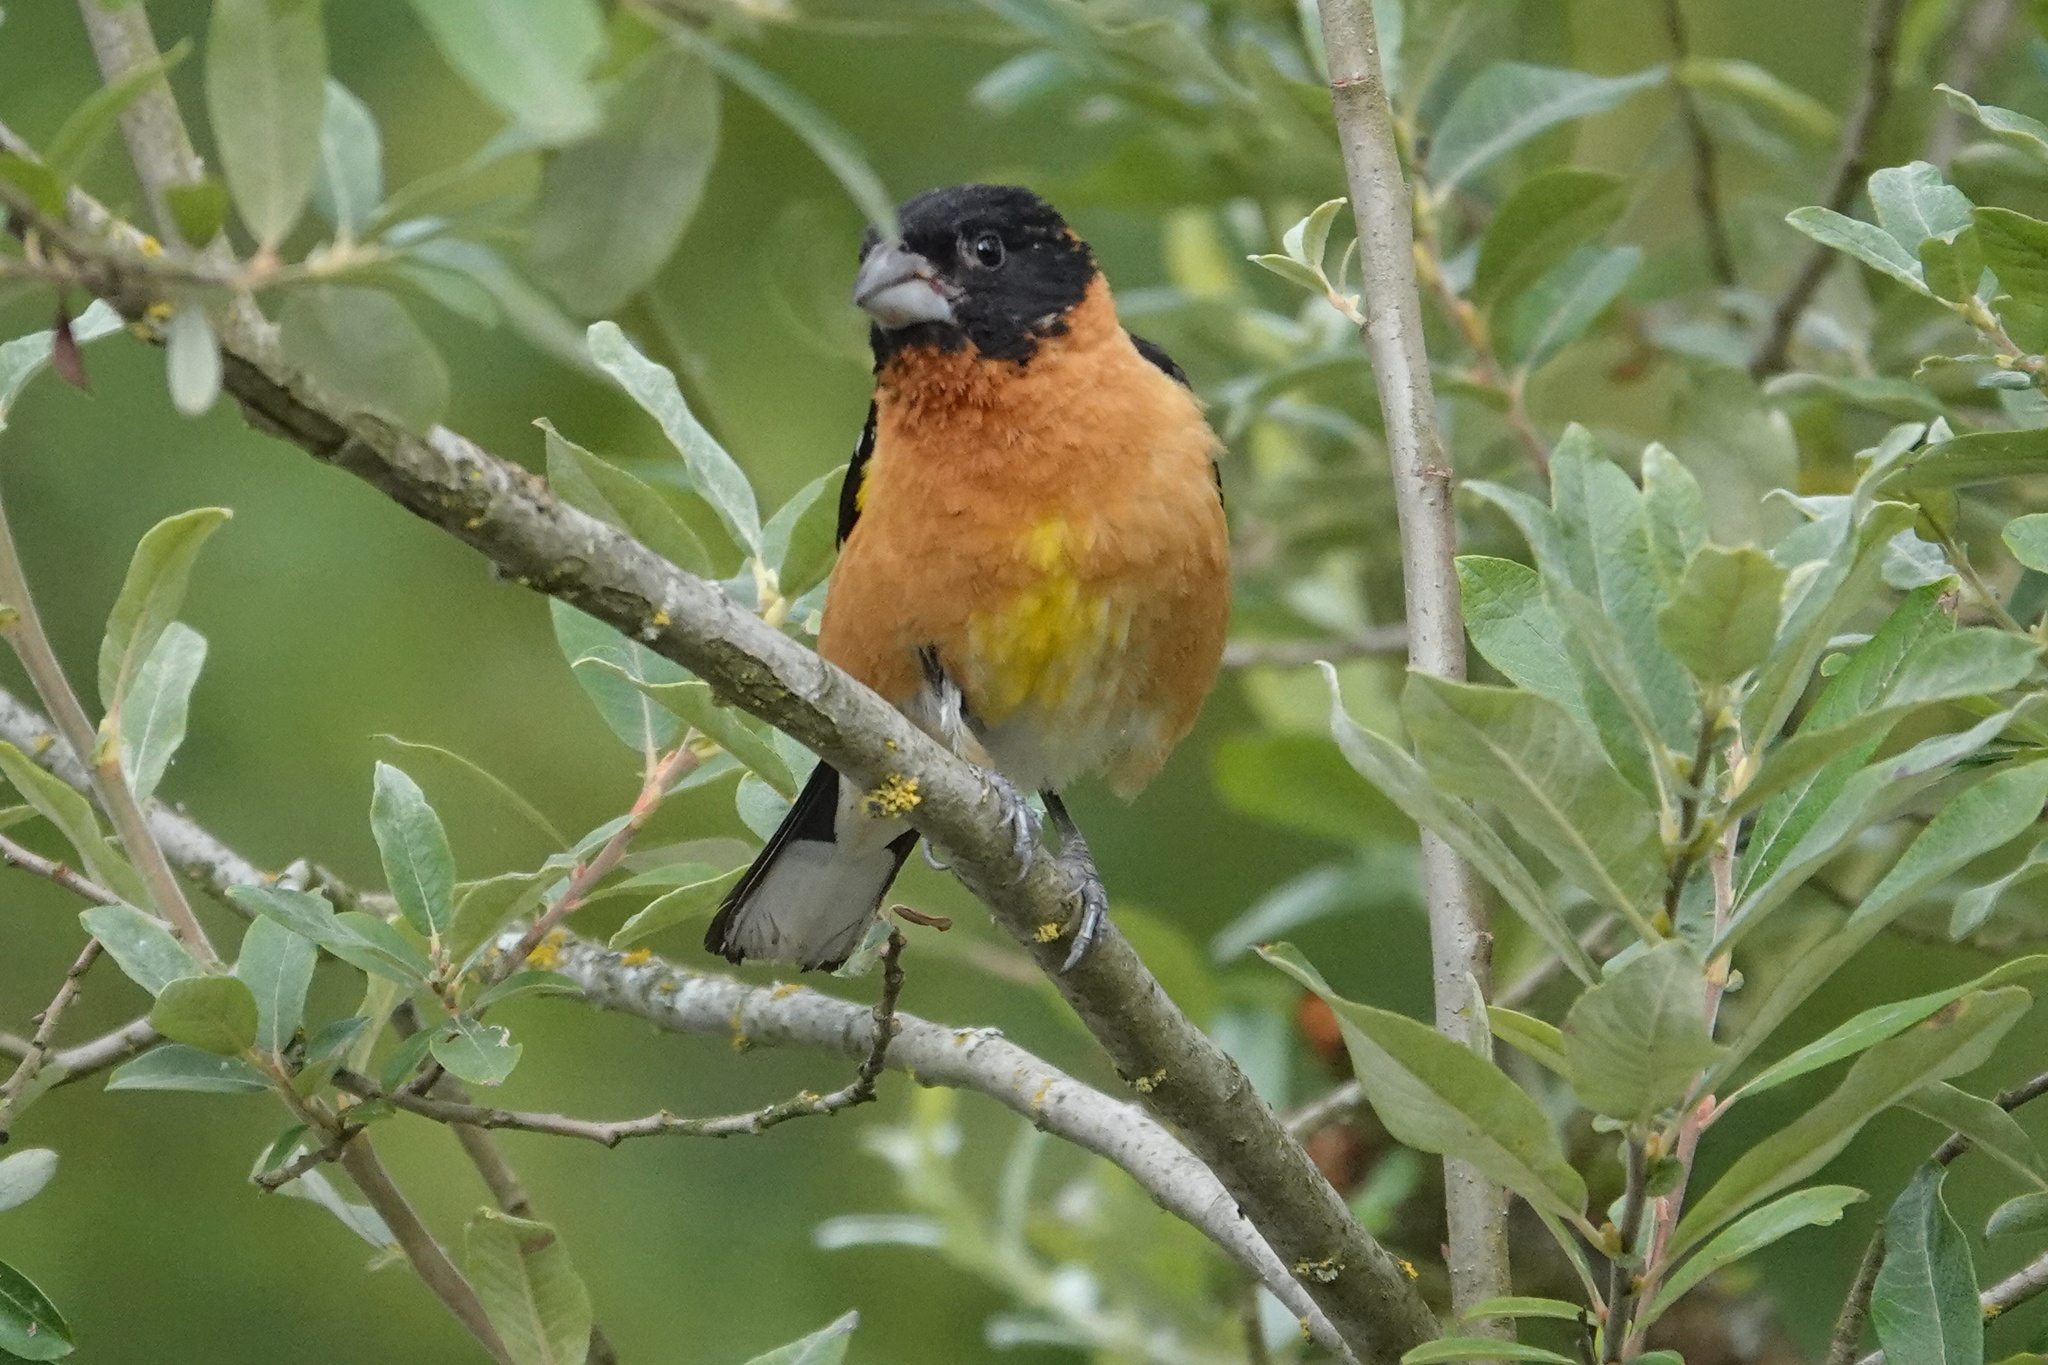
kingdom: Animalia
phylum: Chordata
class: Aves
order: Passeriformes
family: Cardinalidae
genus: Pheucticus
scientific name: Pheucticus melanocephalus
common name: Black-headed grosbeak
